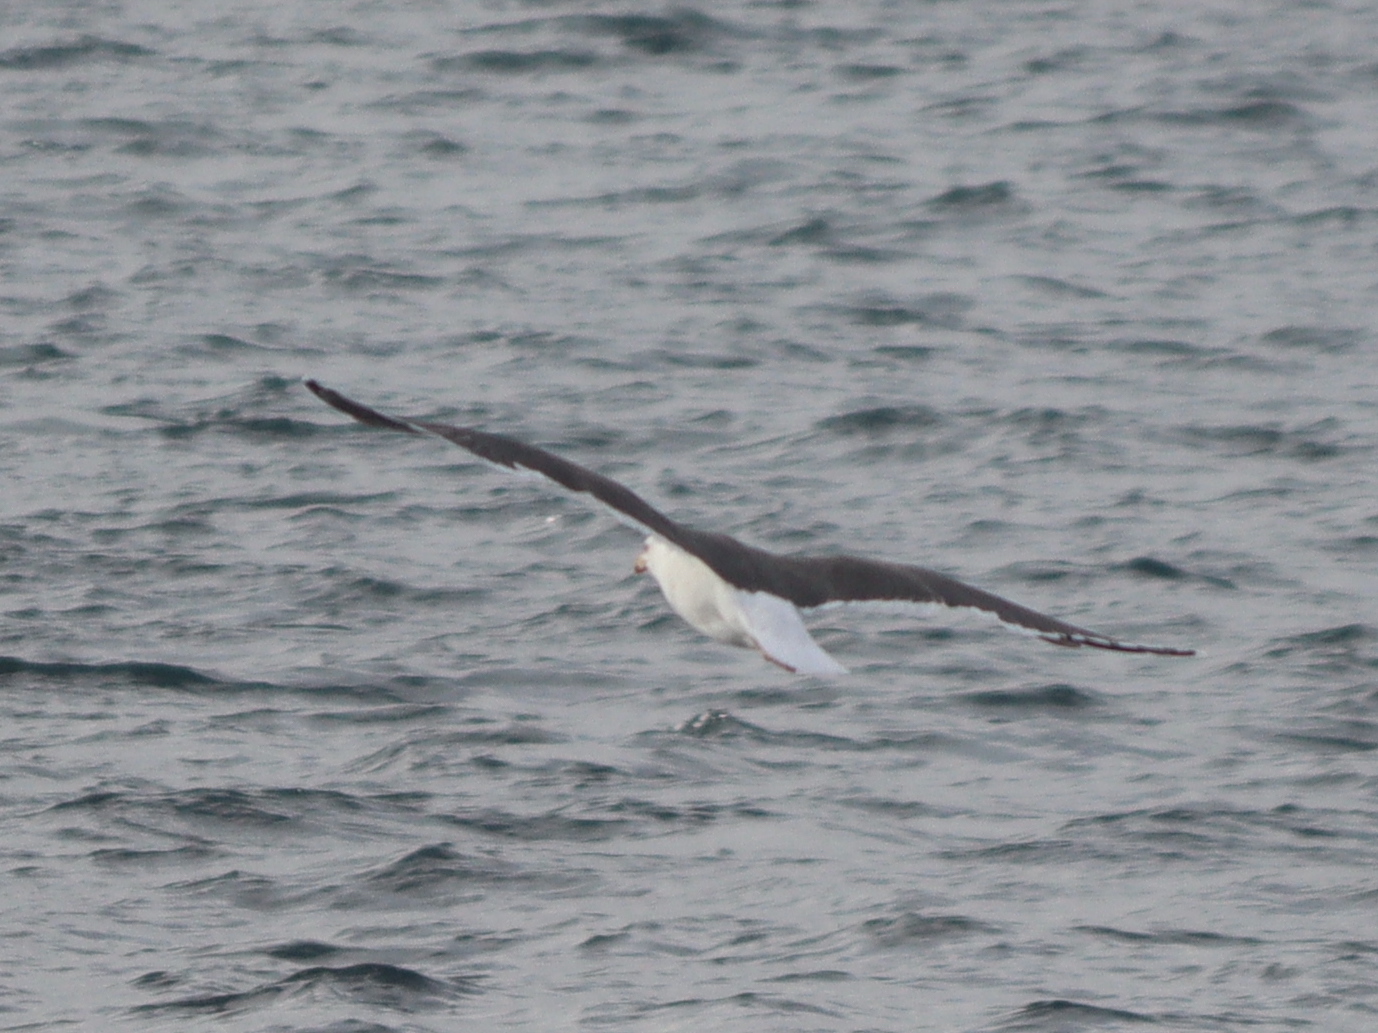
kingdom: Animalia
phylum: Chordata
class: Aves
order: Charadriiformes
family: Laridae
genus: Larus
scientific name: Larus marinus
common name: Great black-backed gull
